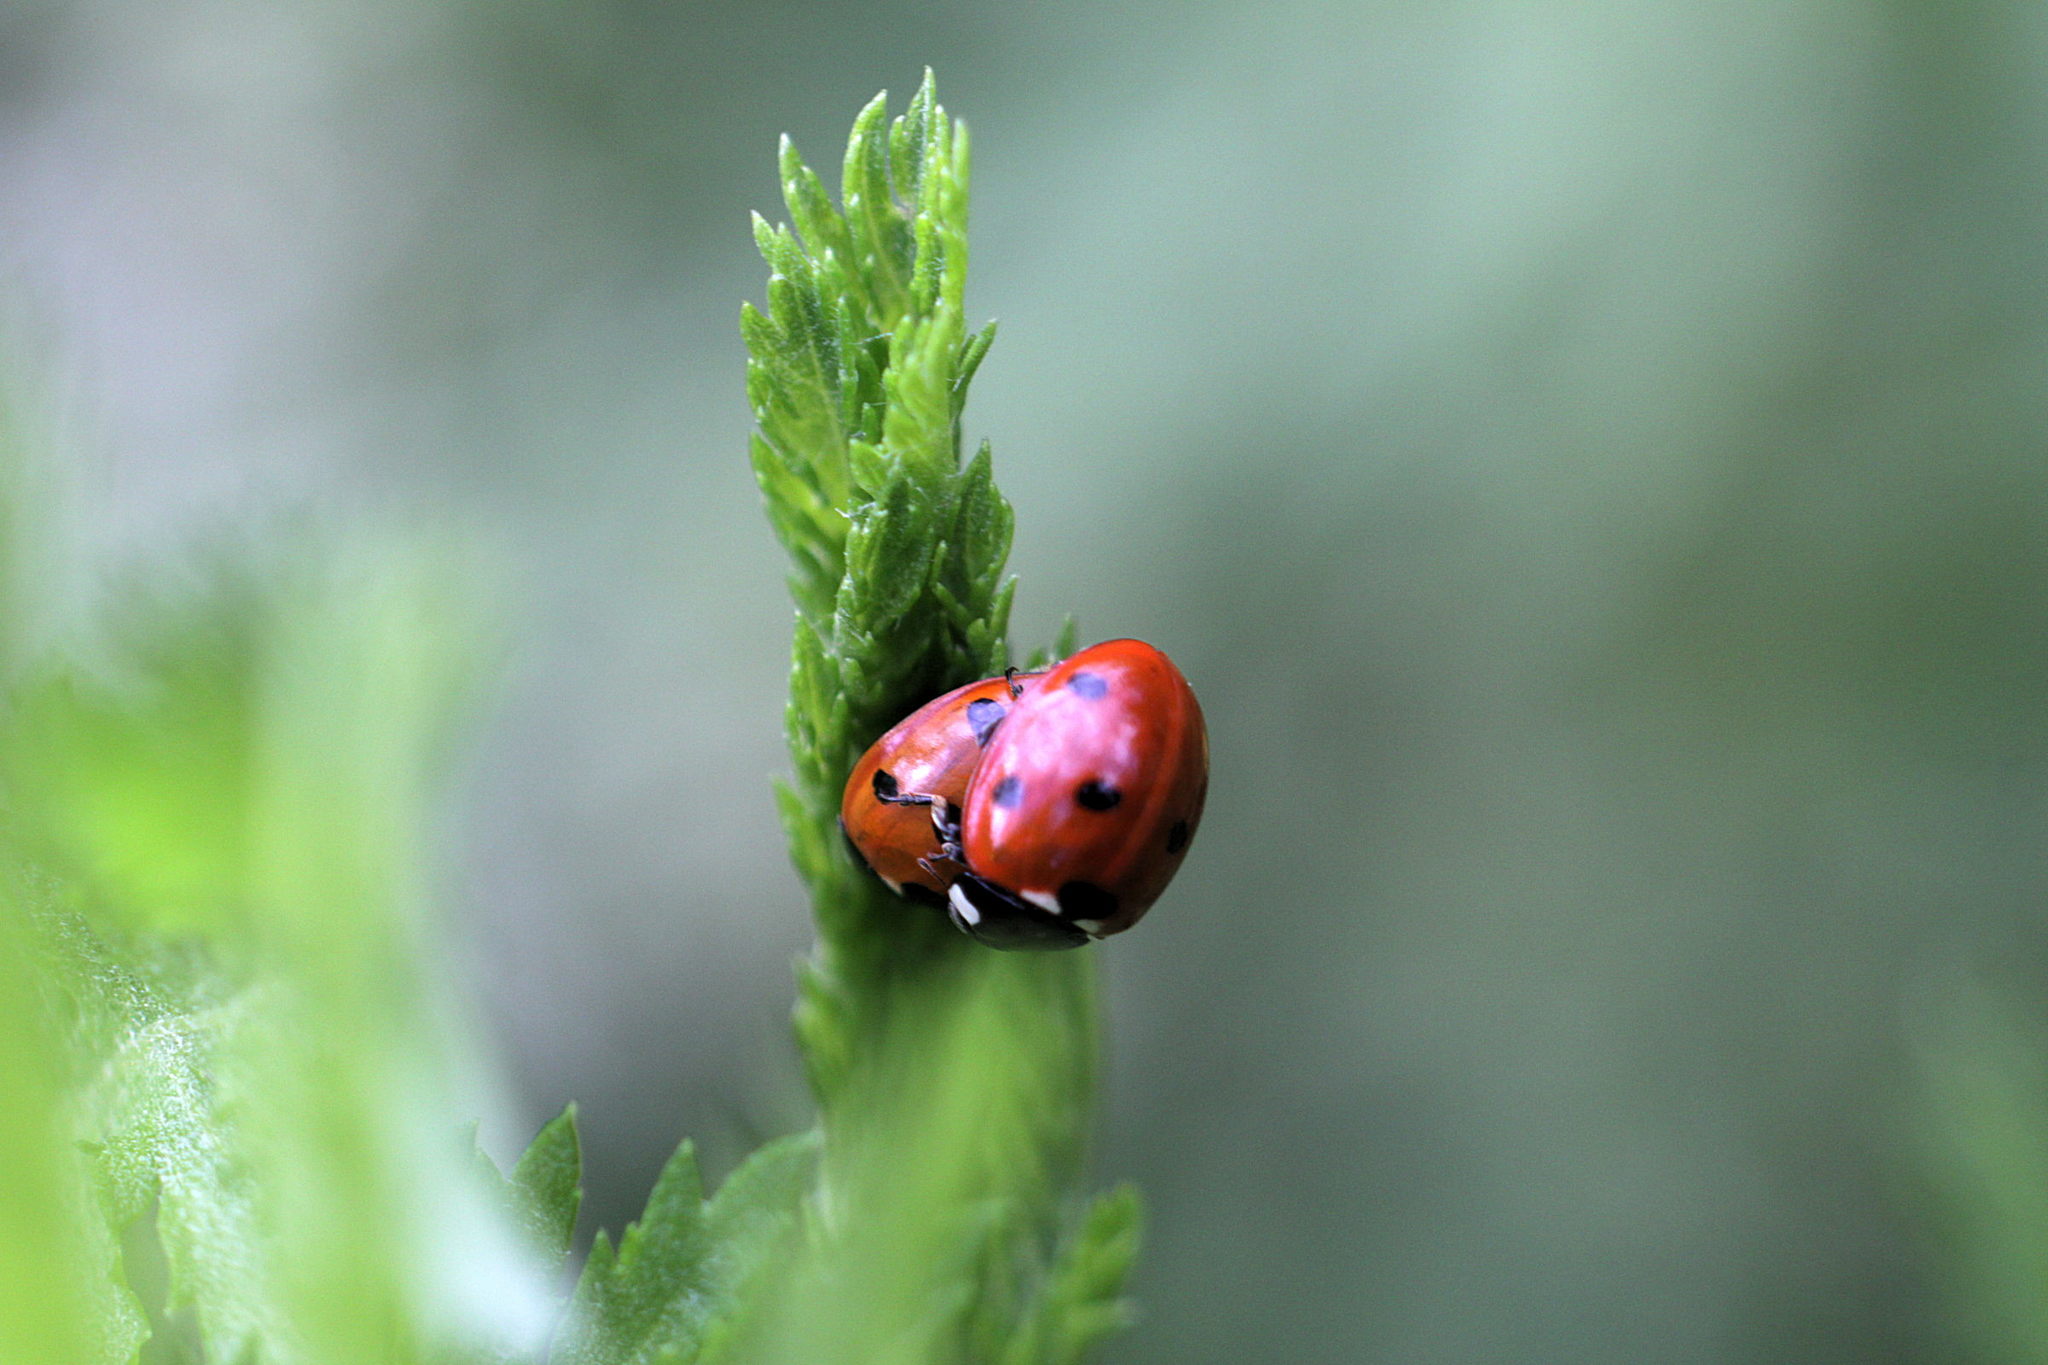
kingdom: Animalia
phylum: Arthropoda
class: Insecta
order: Coleoptera
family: Coccinellidae
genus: Coccinella
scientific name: Coccinella septempunctata
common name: Sevenspotted lady beetle
